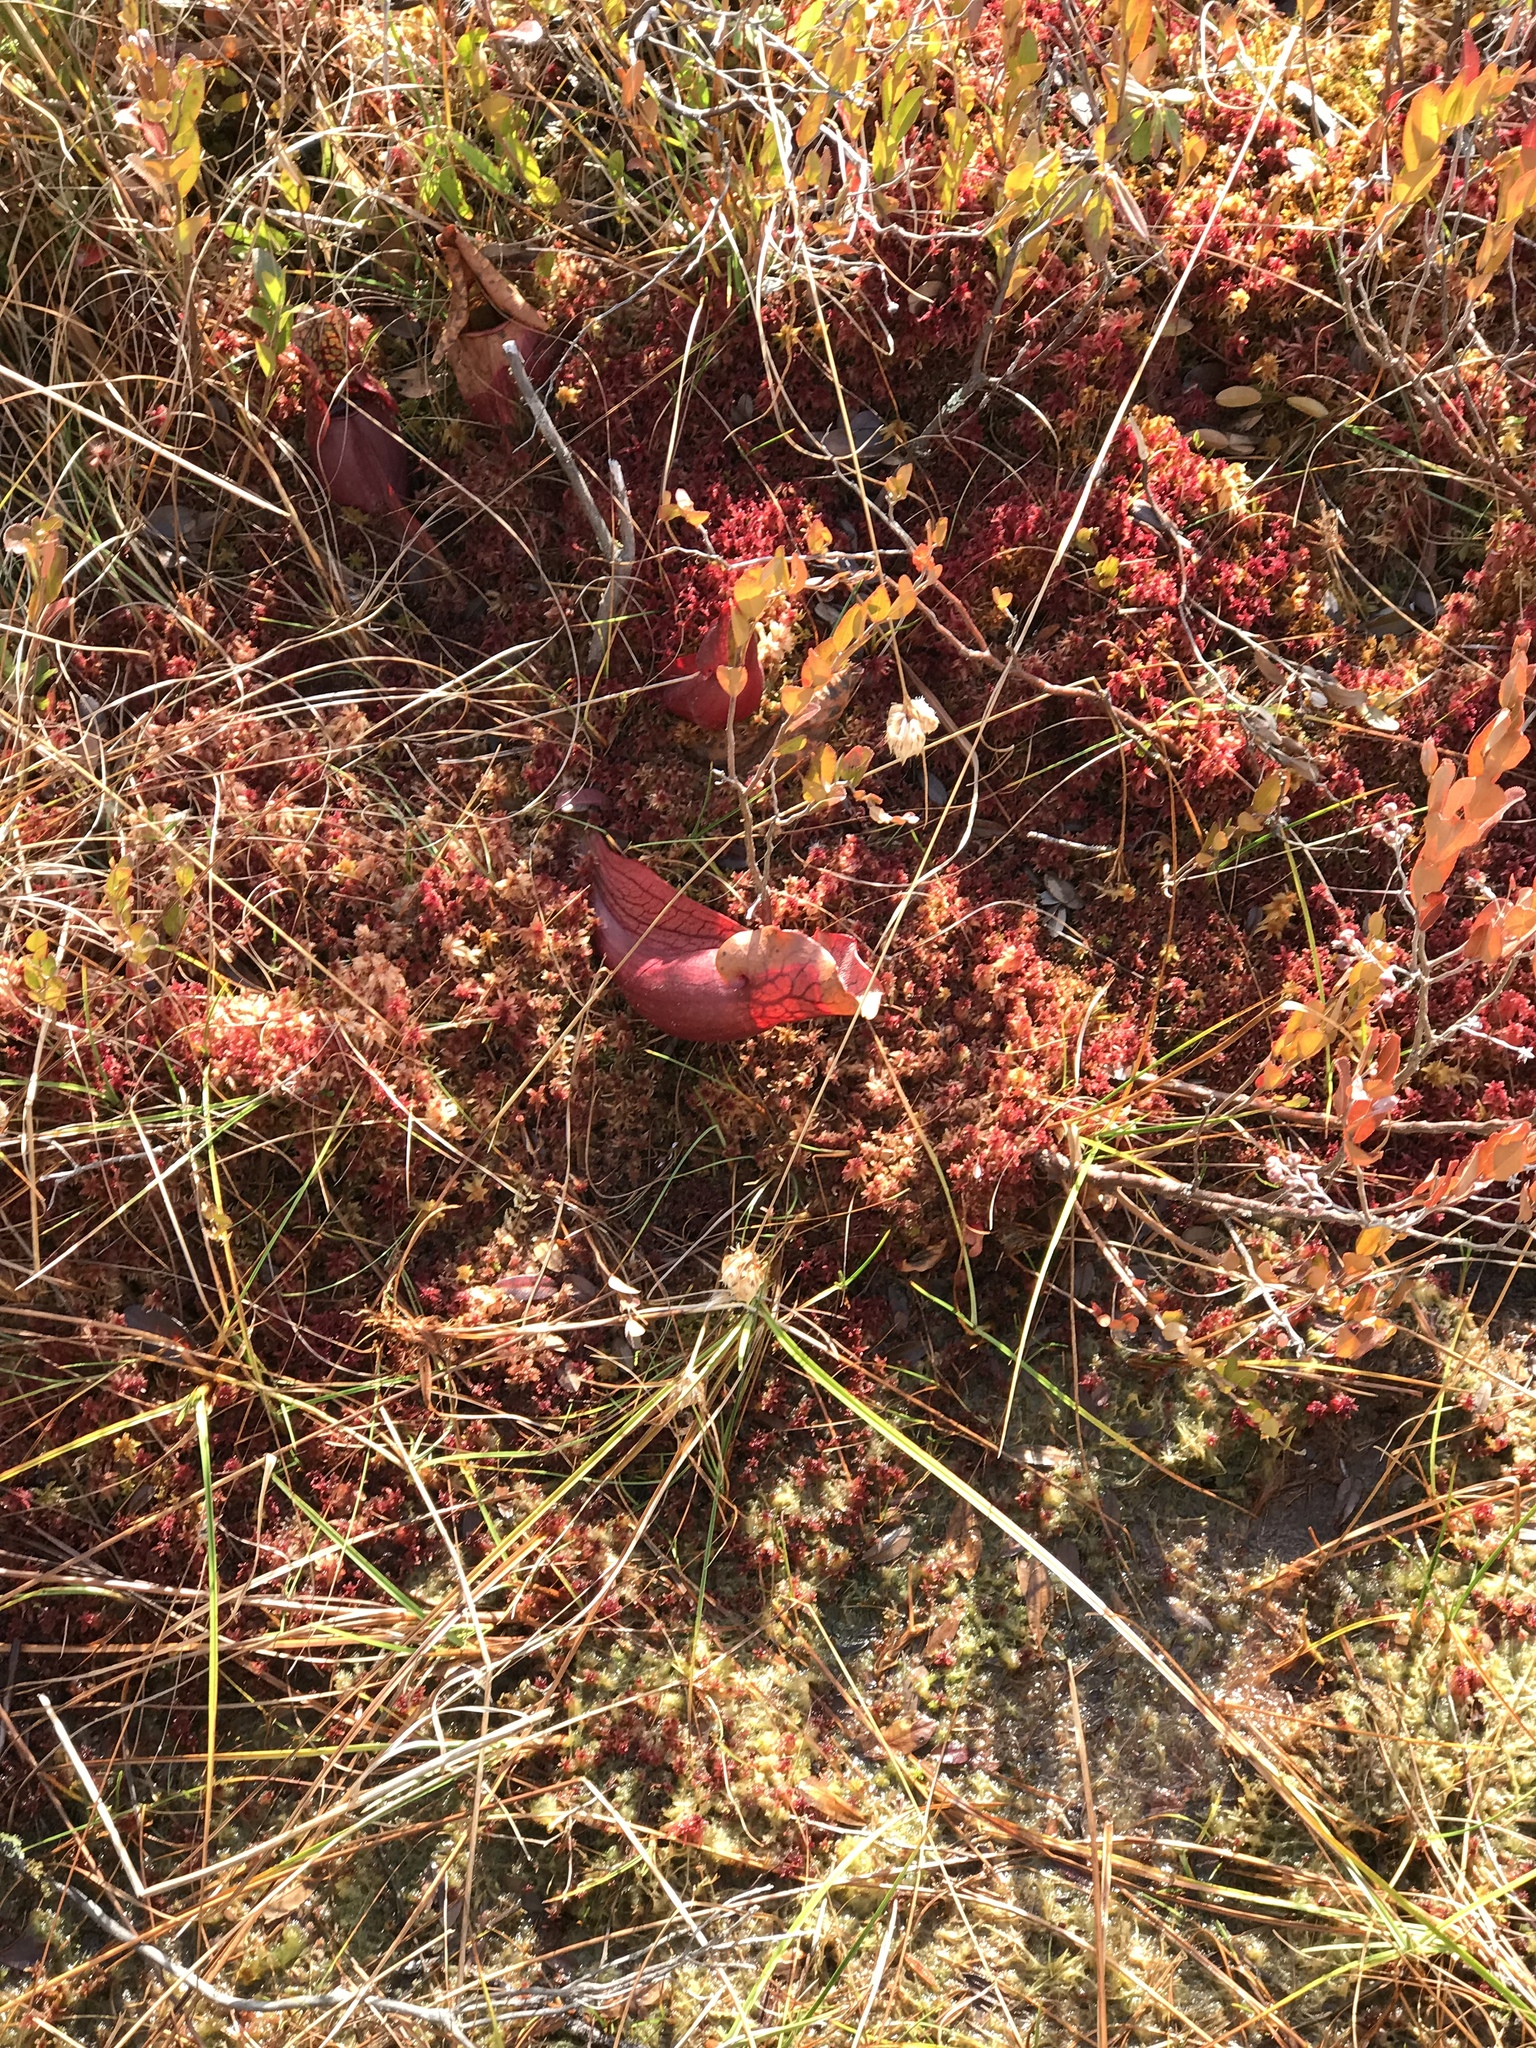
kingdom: Plantae
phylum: Tracheophyta
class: Magnoliopsida
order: Ericales
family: Sarraceniaceae
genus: Sarracenia
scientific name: Sarracenia purpurea
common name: Pitcherplant
